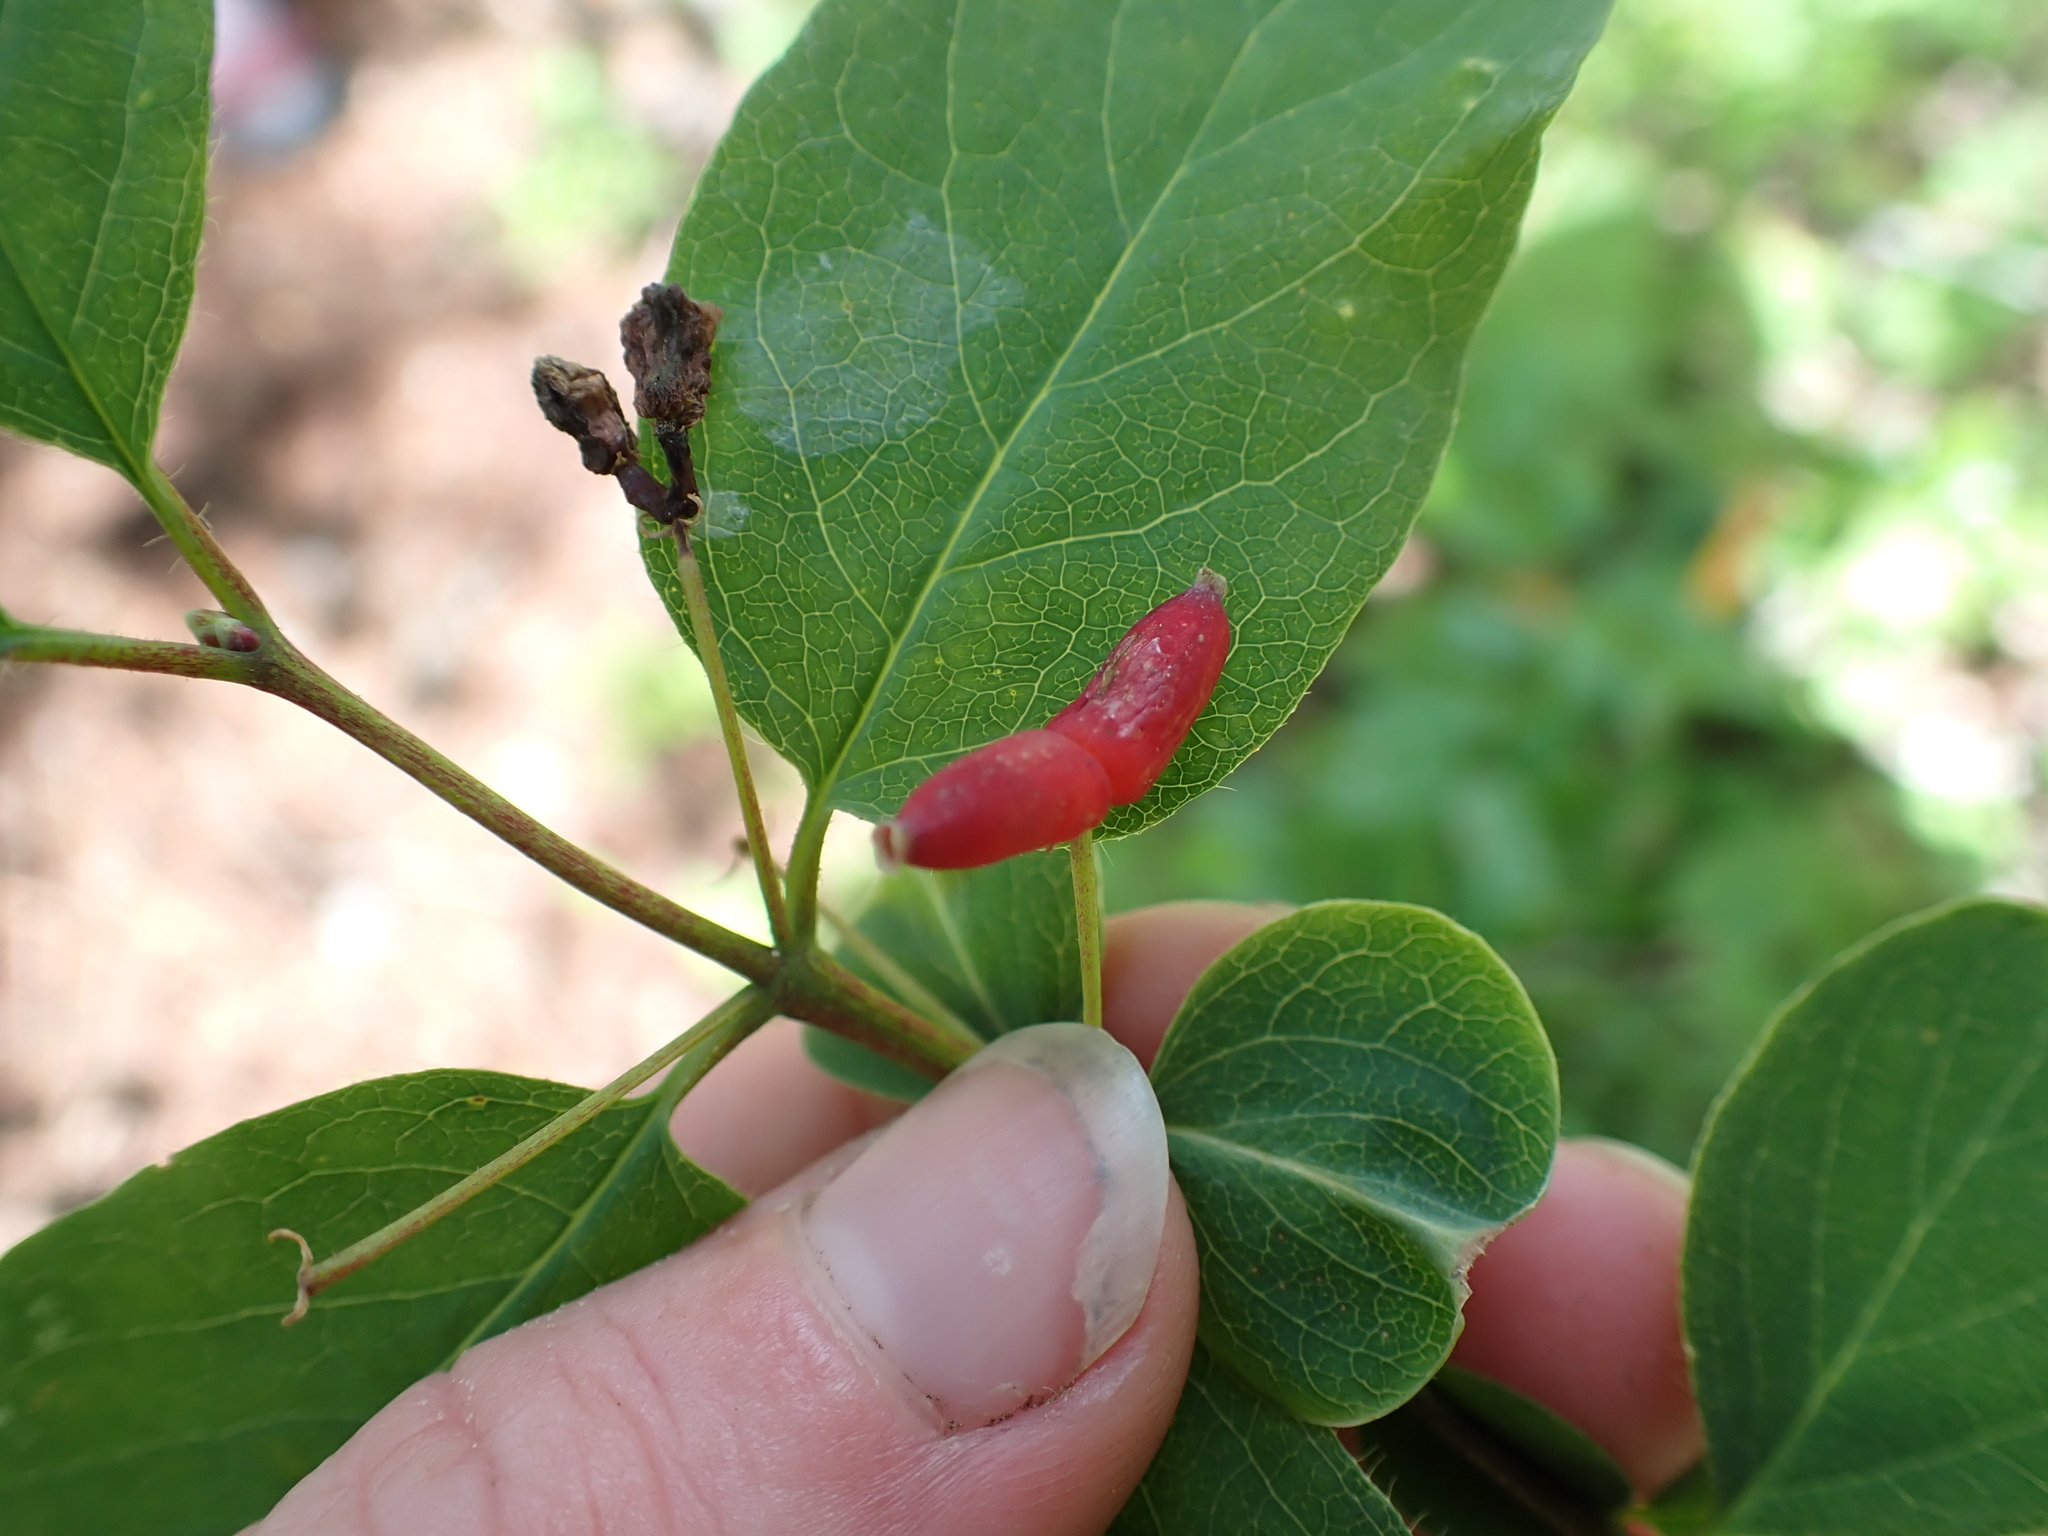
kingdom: Plantae
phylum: Tracheophyta
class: Magnoliopsida
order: Dipsacales
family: Caprifoliaceae
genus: Lonicera
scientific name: Lonicera utahensis
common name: Utah honeysuckle
